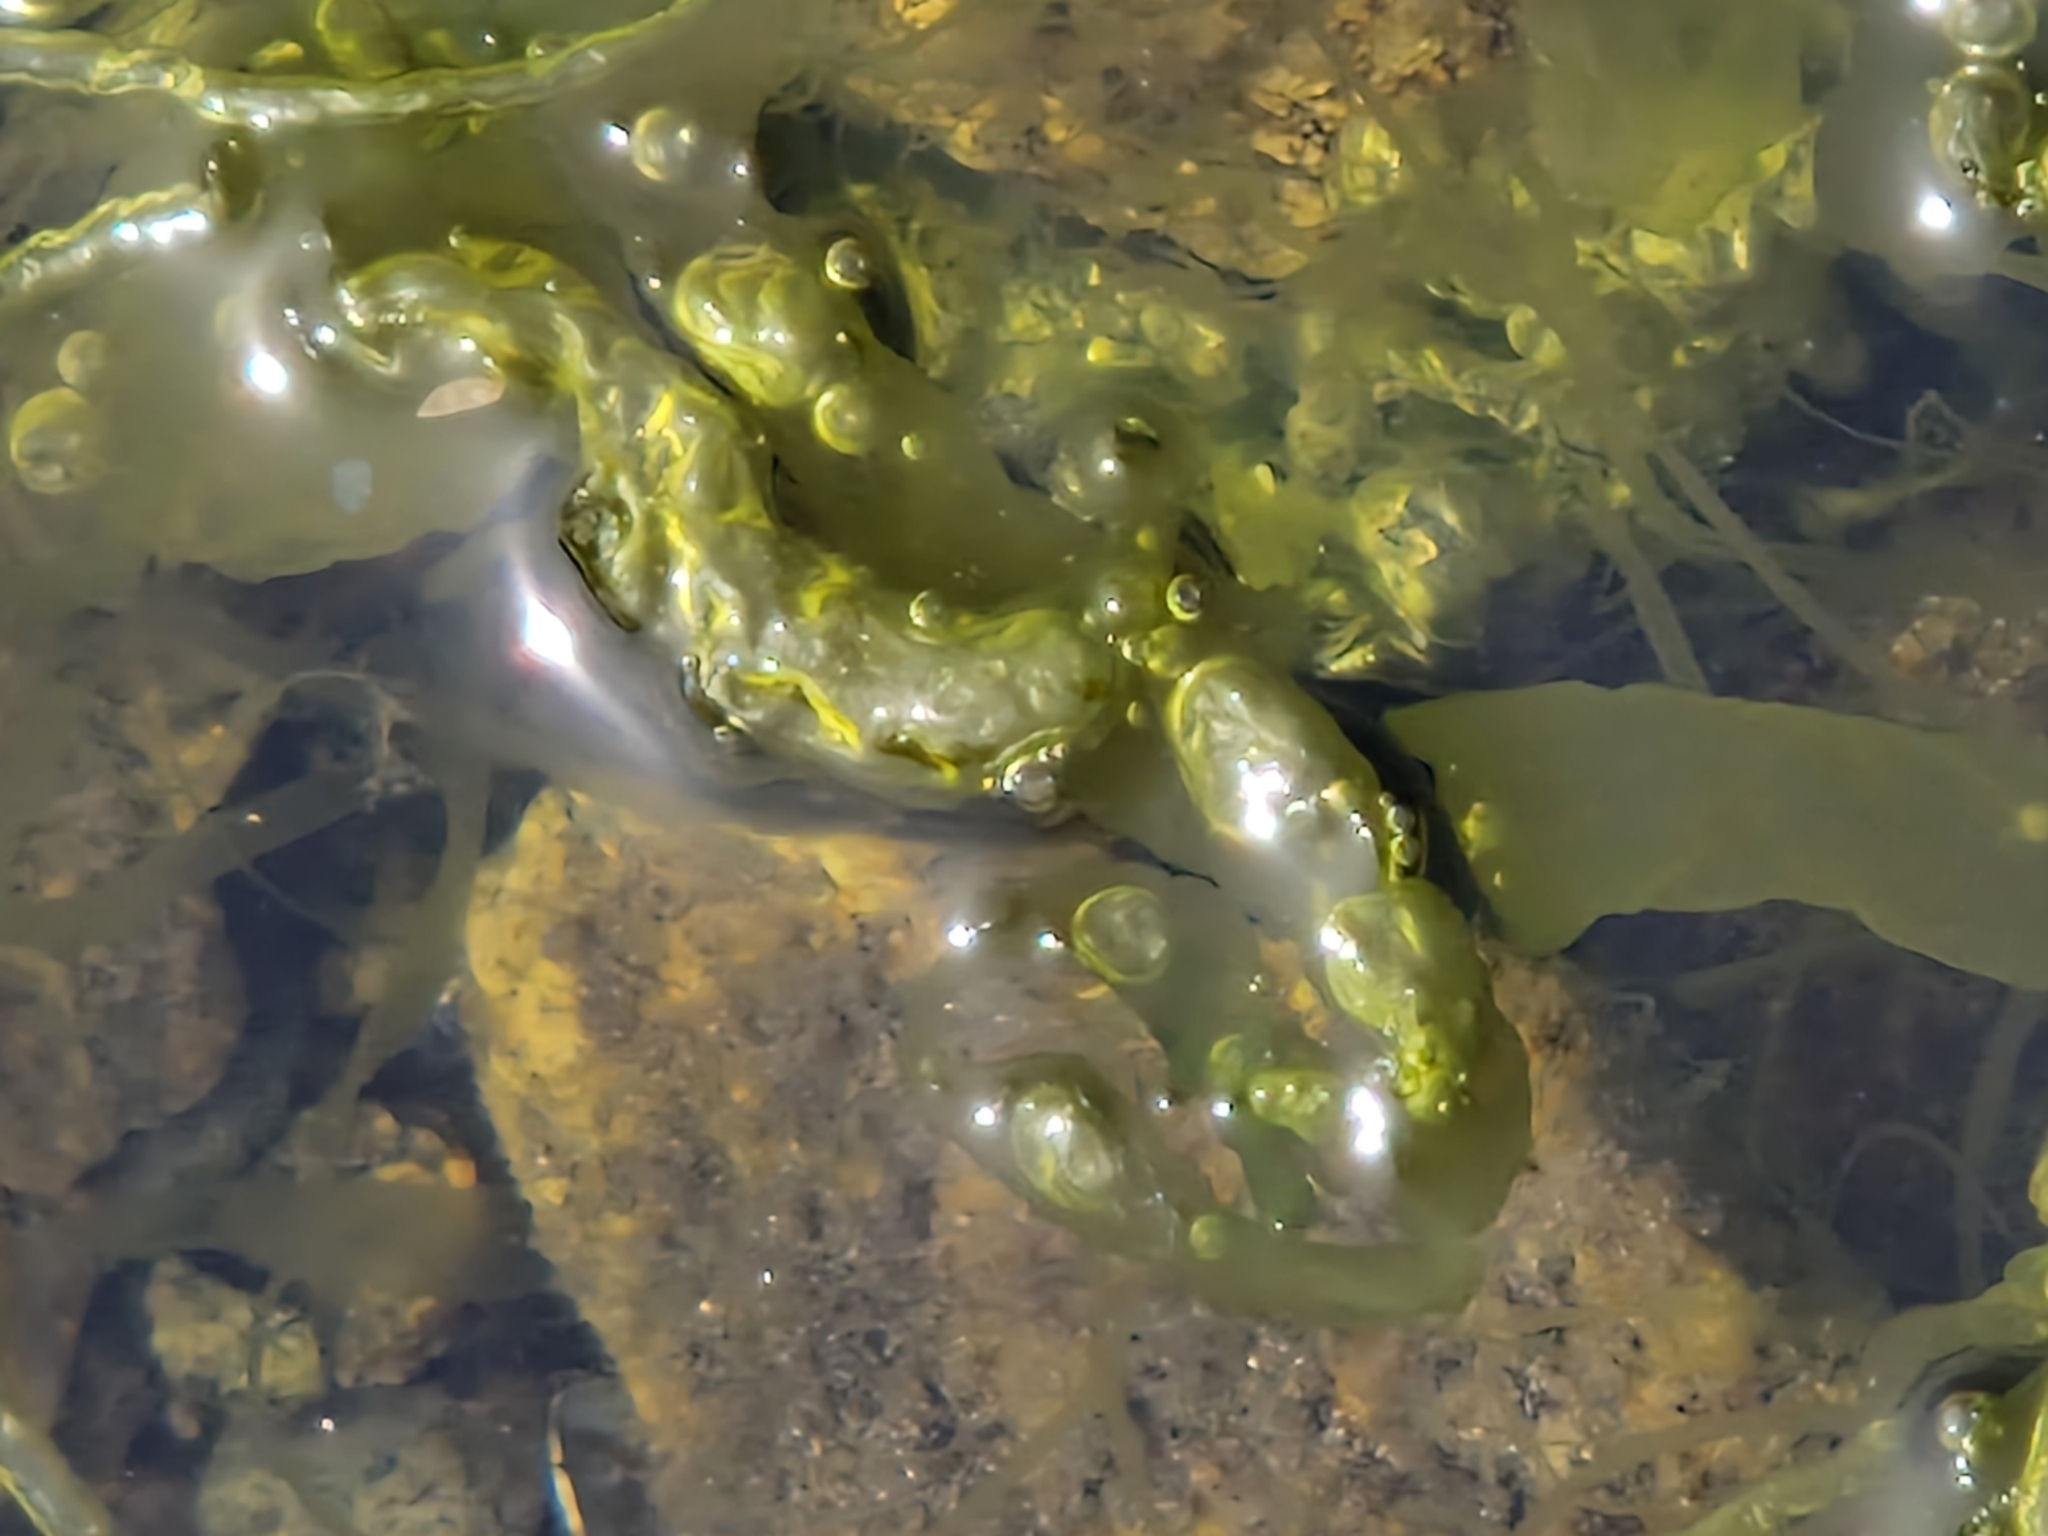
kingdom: Plantae
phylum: Chlorophyta
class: Ulvophyceae
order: Ulvales
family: Ulvaceae
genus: Ulva
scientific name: Ulva intestinalis
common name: Gut weed
